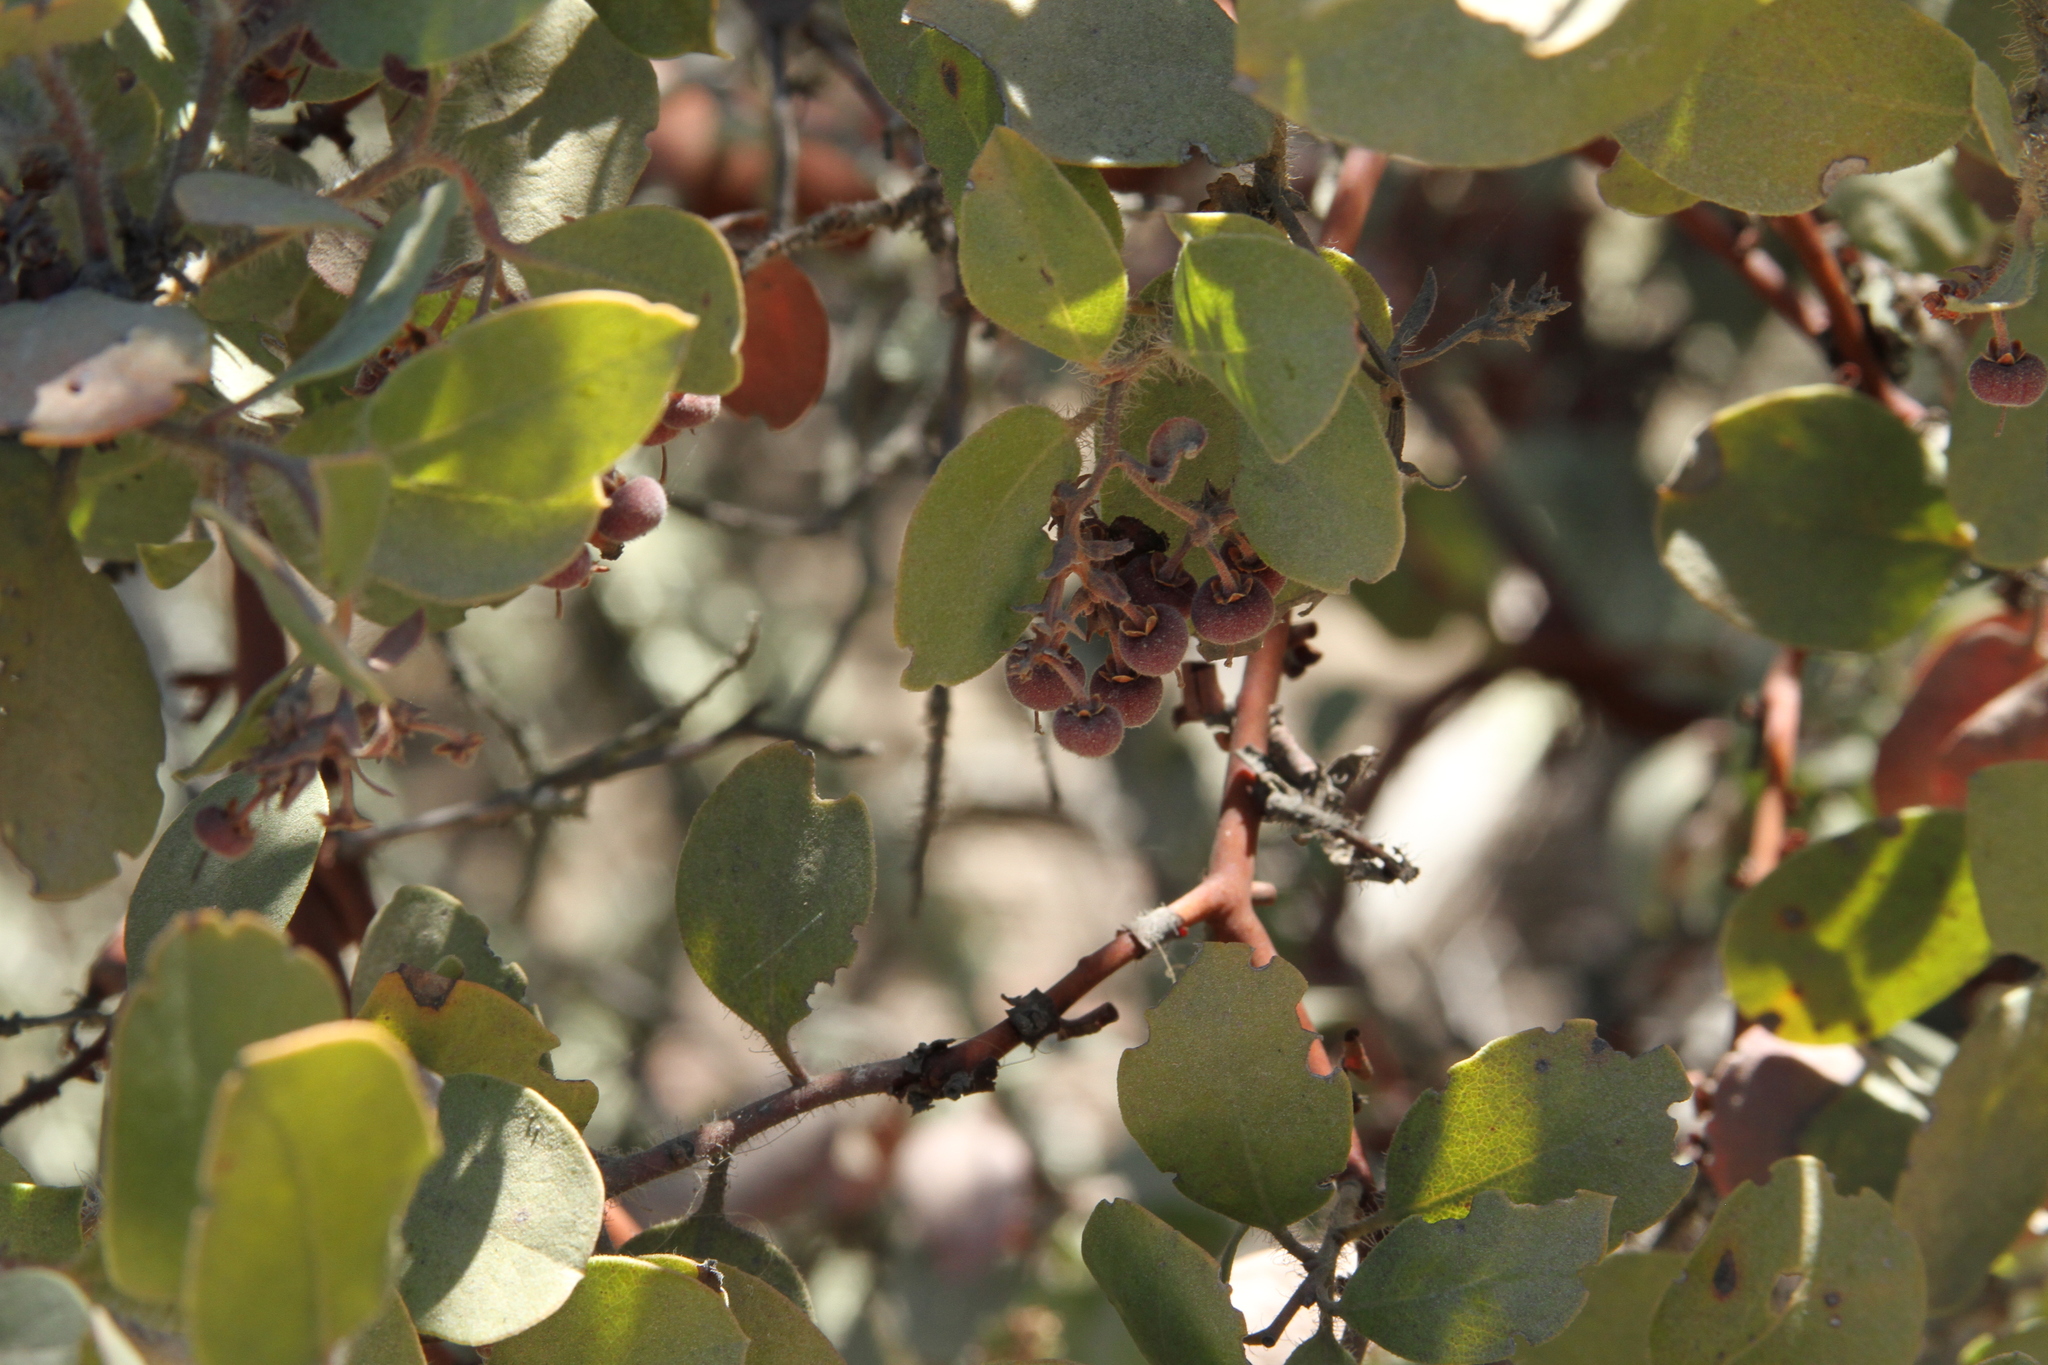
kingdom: Plantae
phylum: Tracheophyta
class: Magnoliopsida
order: Ericales
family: Ericaceae
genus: Arctostaphylos
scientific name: Arctostaphylos crustacea
